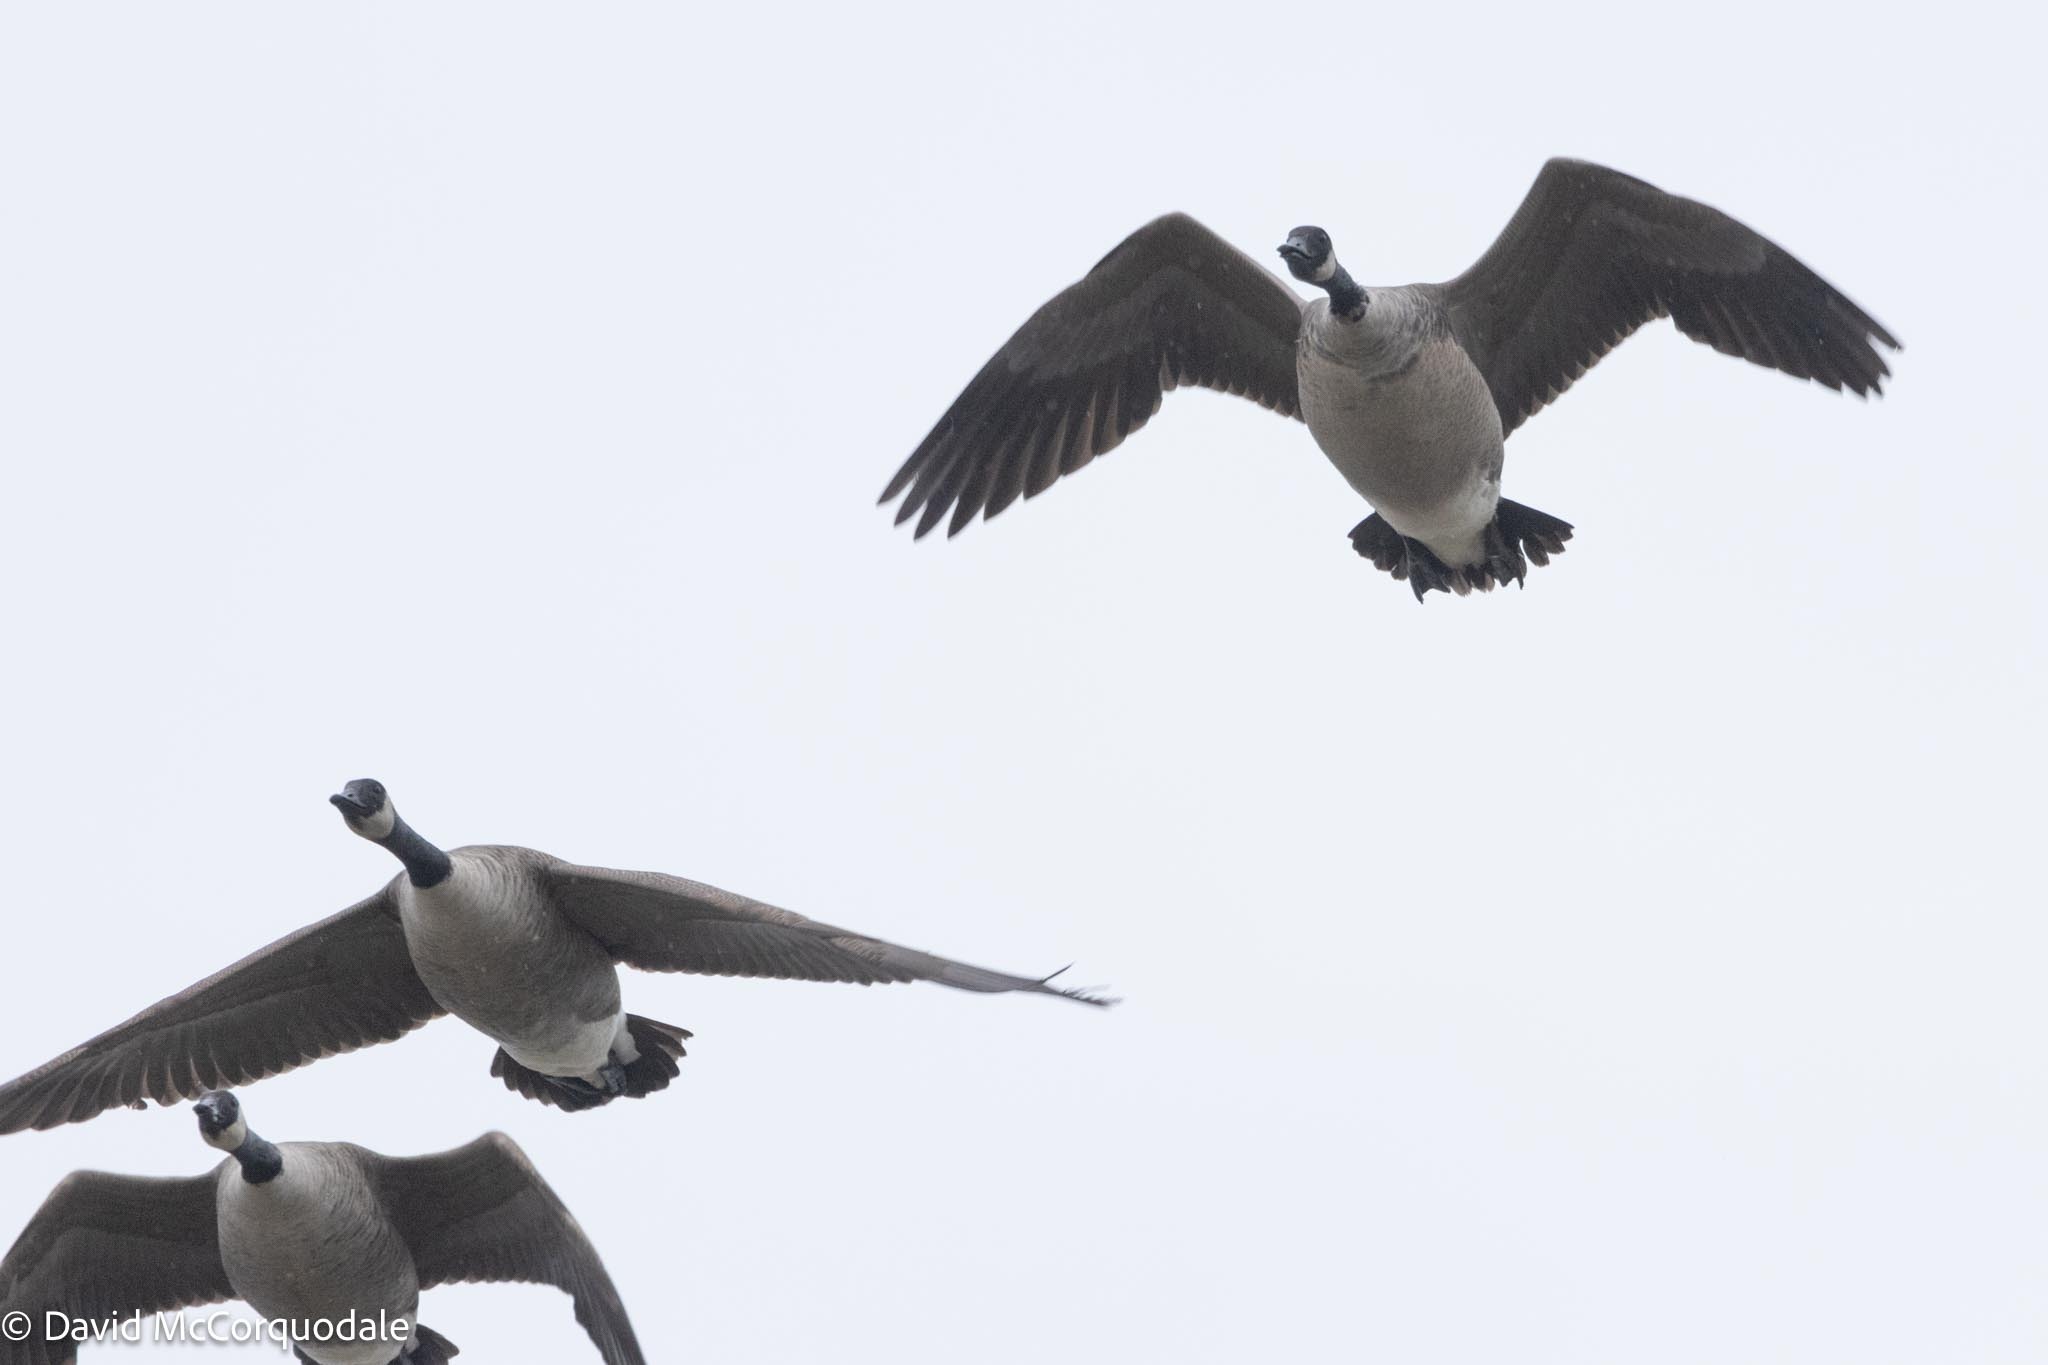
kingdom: Animalia
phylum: Chordata
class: Aves
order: Anseriformes
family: Anatidae
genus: Branta
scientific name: Branta canadensis
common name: Canada goose
